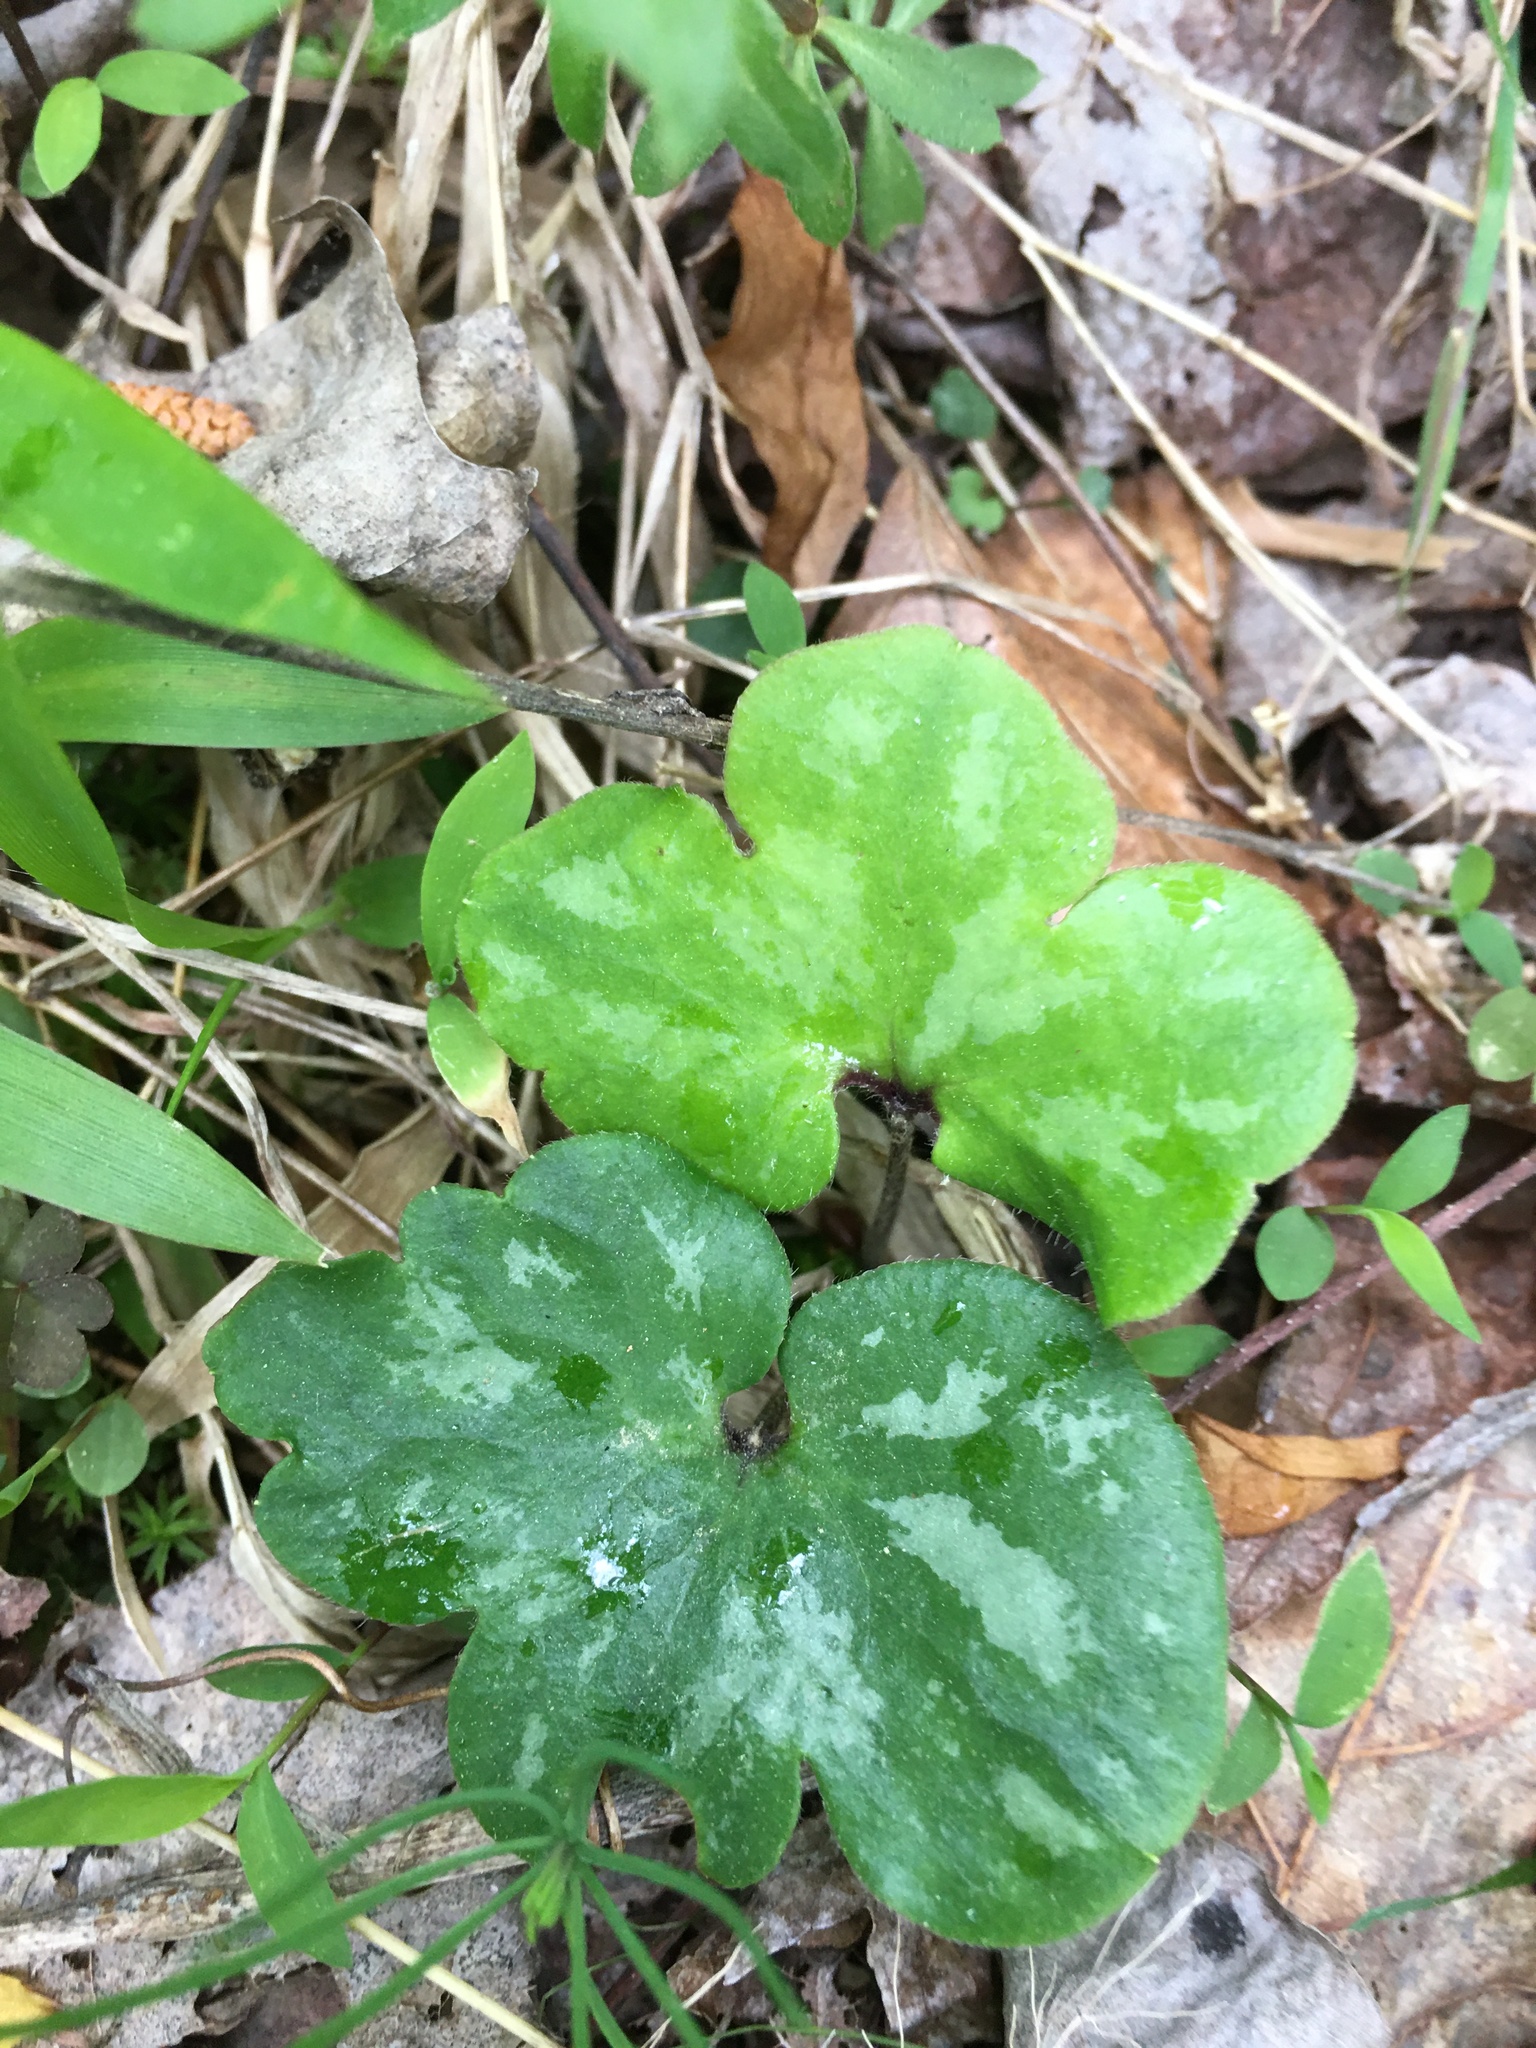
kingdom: Plantae
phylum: Tracheophyta
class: Magnoliopsida
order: Ranunculales
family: Ranunculaceae
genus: Hepatica
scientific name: Hepatica americana
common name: American hepatica
